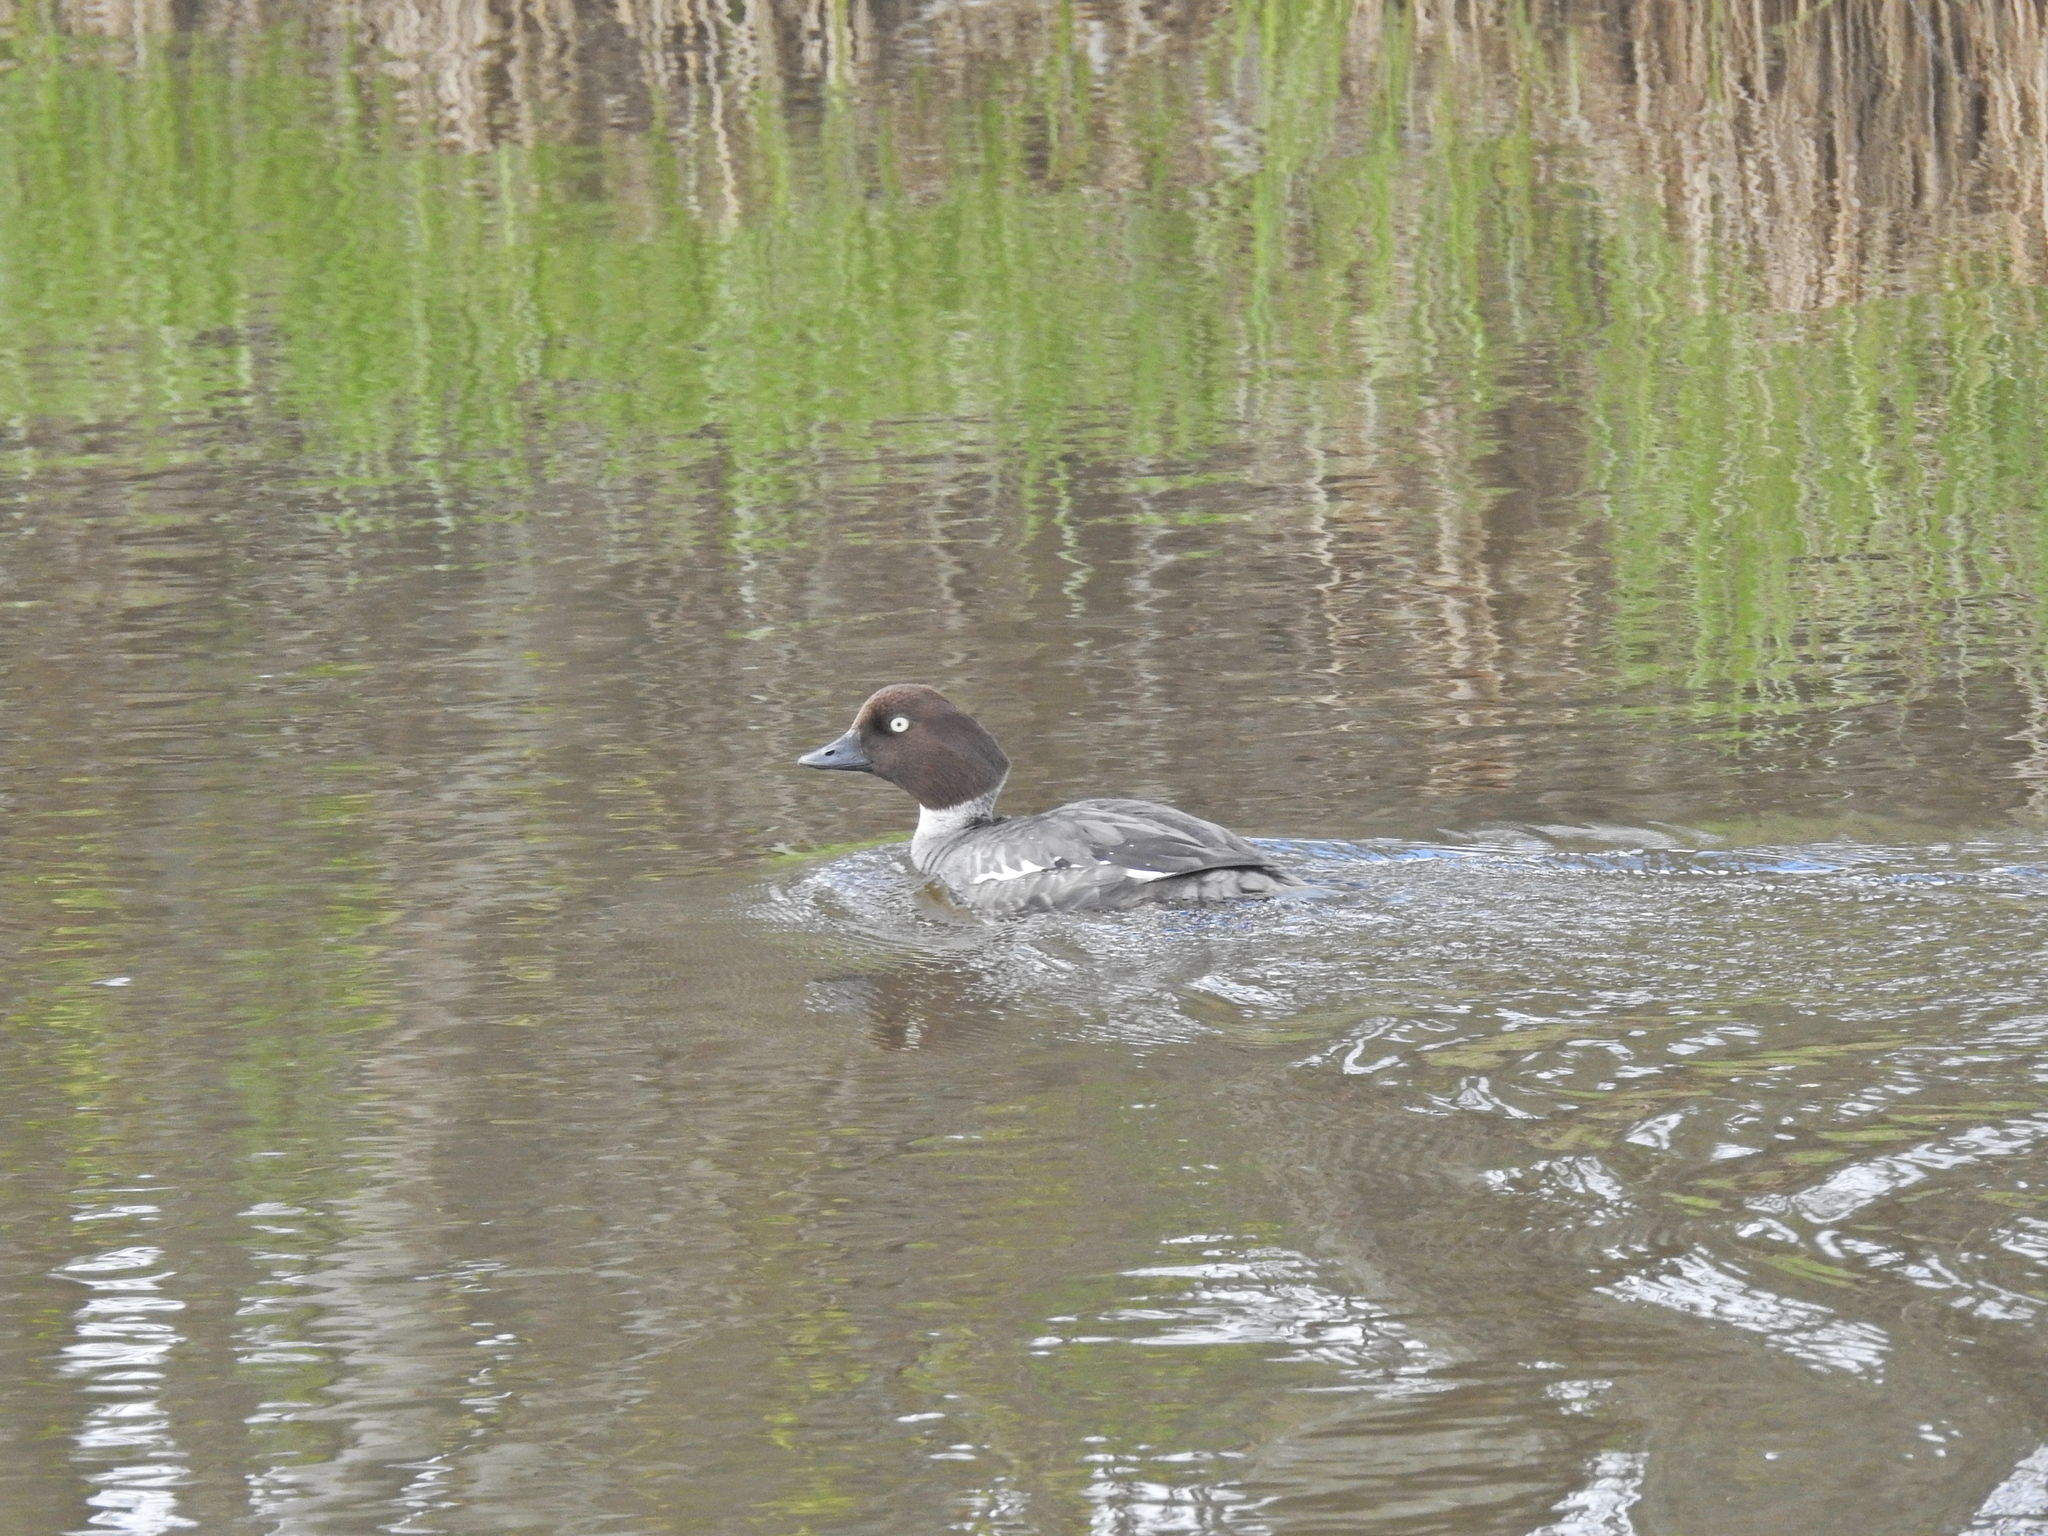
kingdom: Animalia
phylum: Chordata
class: Aves
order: Anseriformes
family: Anatidae
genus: Bucephala
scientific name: Bucephala clangula
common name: Common goldeneye
